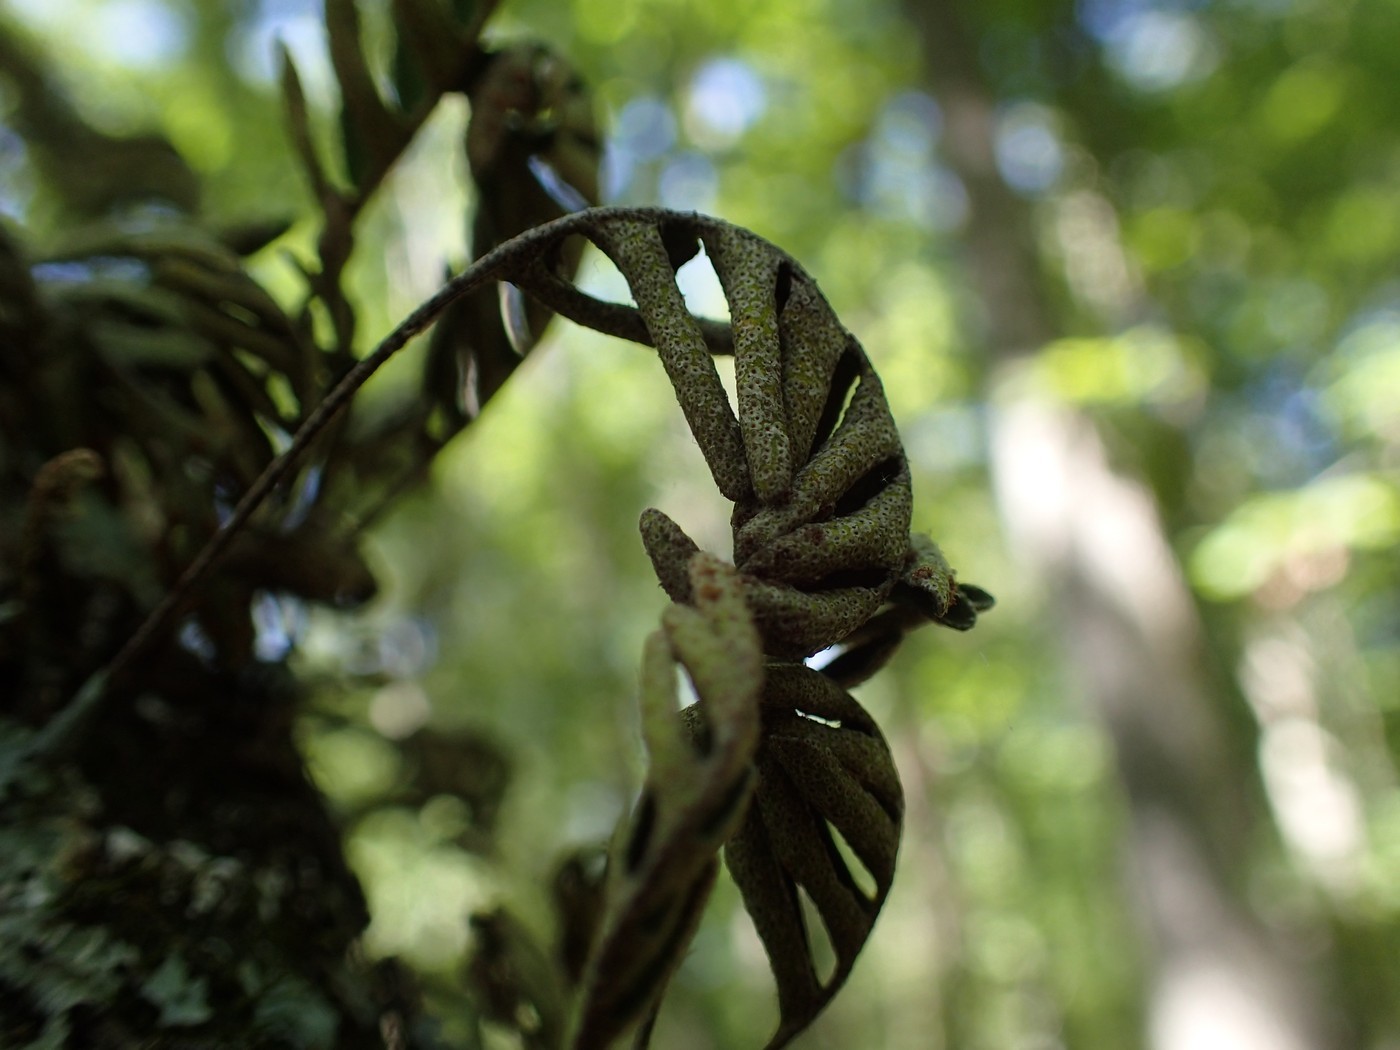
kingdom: Plantae
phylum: Tracheophyta
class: Polypodiopsida
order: Polypodiales
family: Polypodiaceae
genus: Pleopeltis
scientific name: Pleopeltis michauxiana
